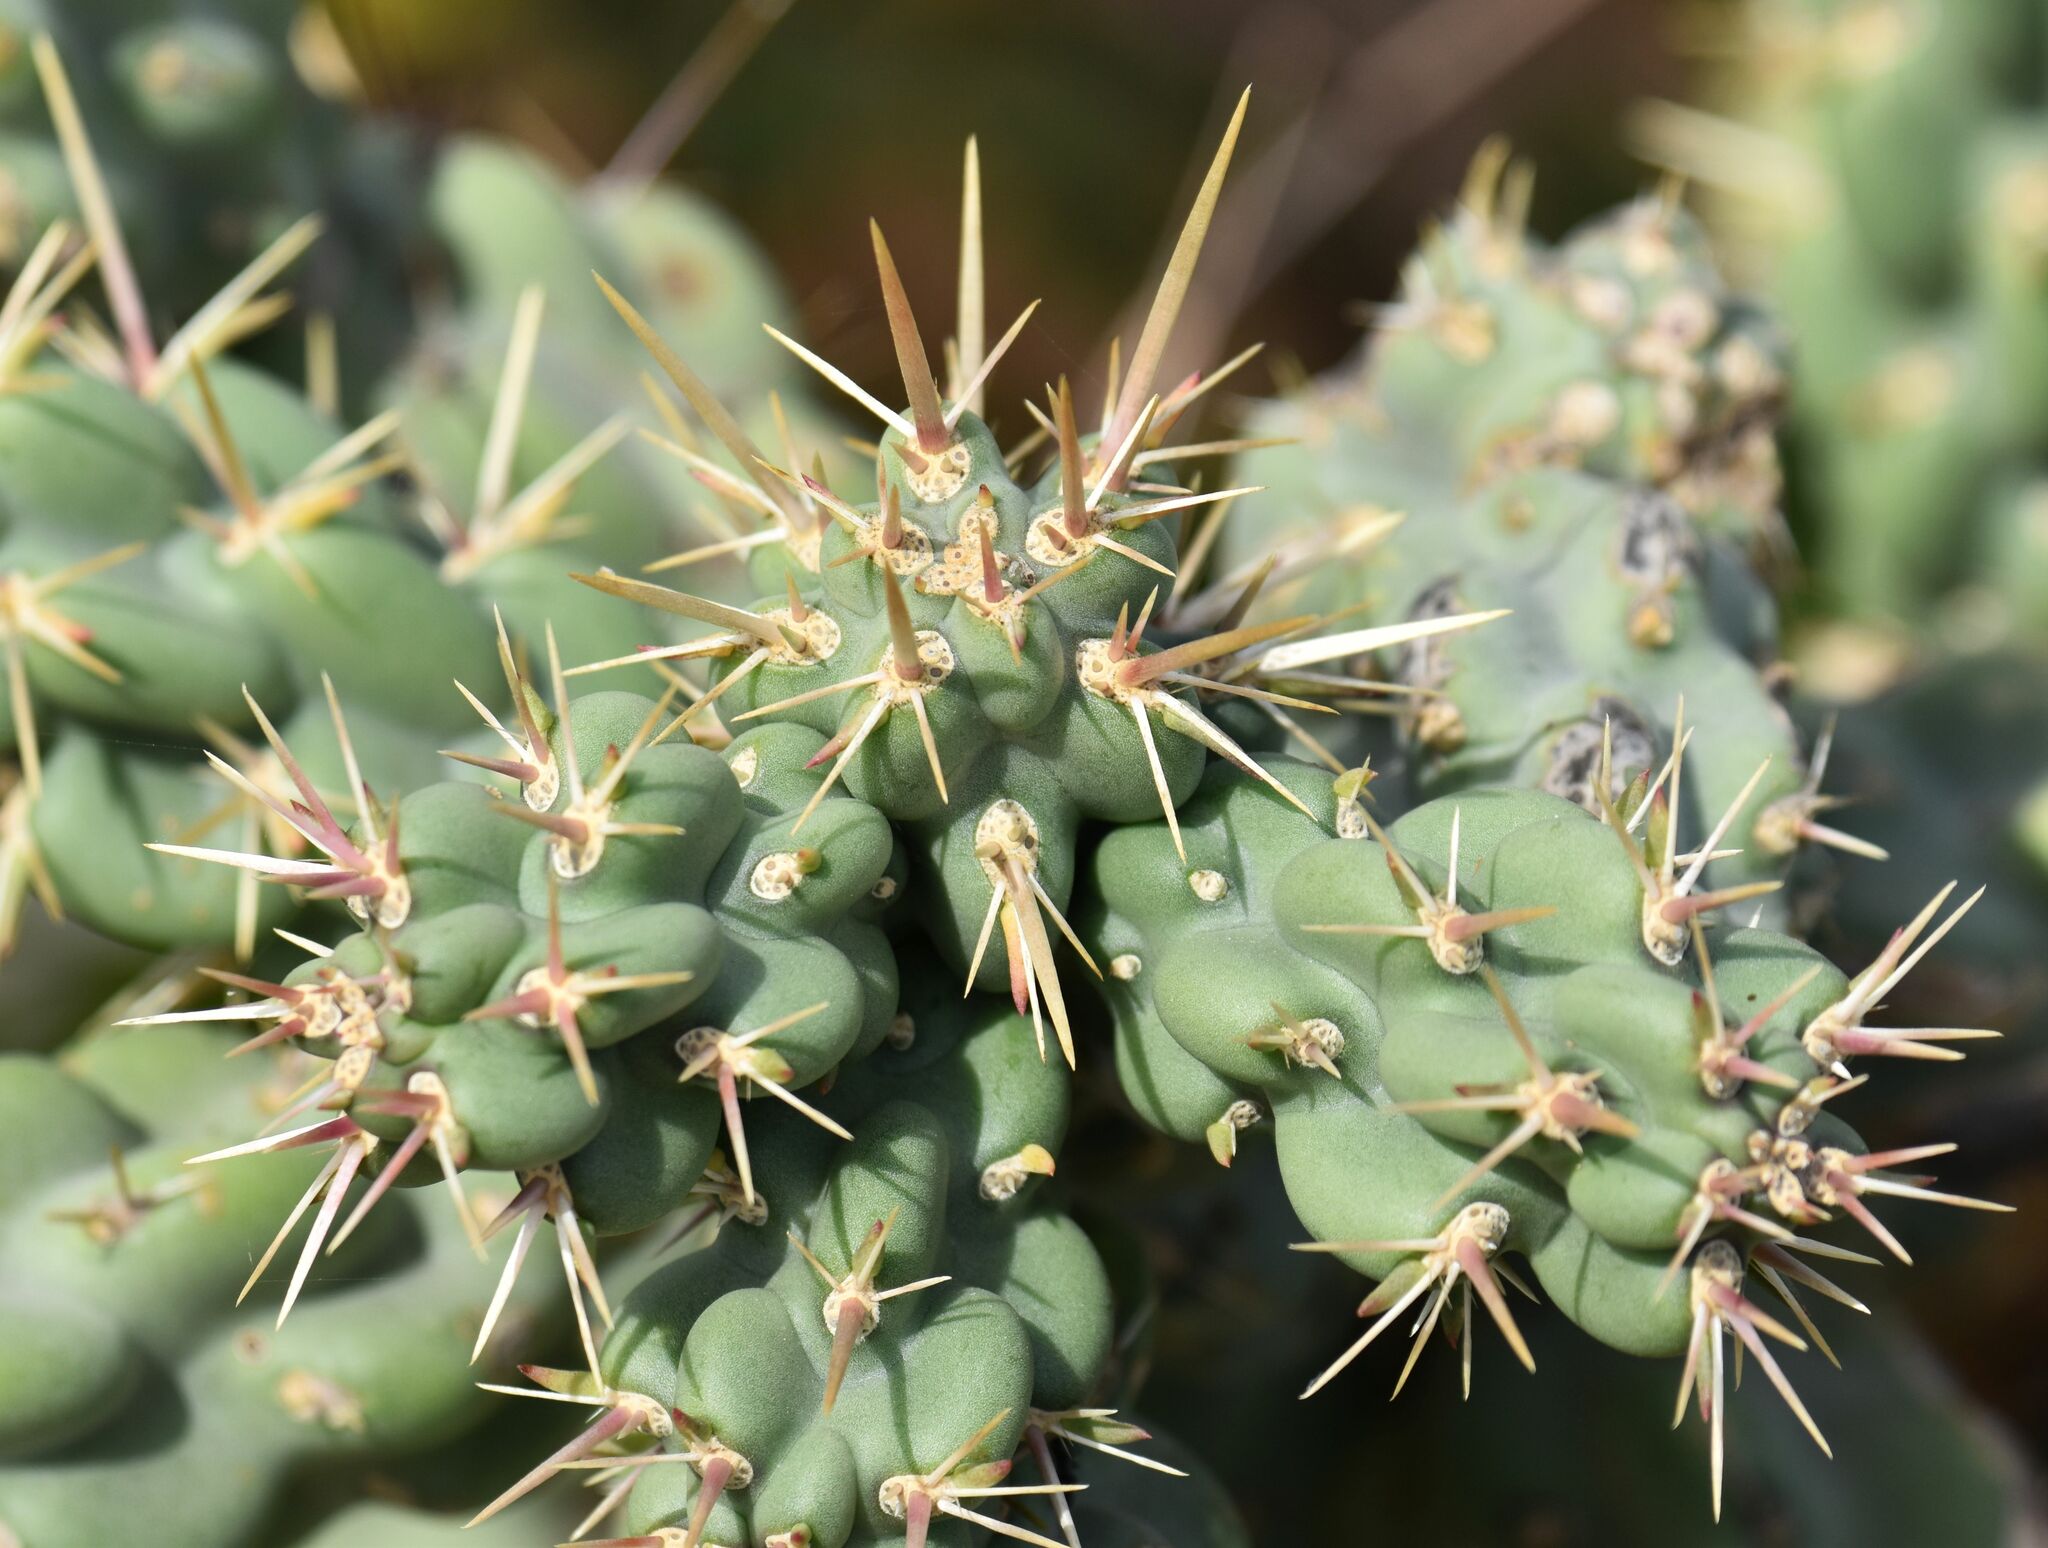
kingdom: Plantae
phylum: Tracheophyta
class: Magnoliopsida
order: Caryophyllales
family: Cactaceae
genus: Cylindropuntia
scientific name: Cylindropuntia cholla
